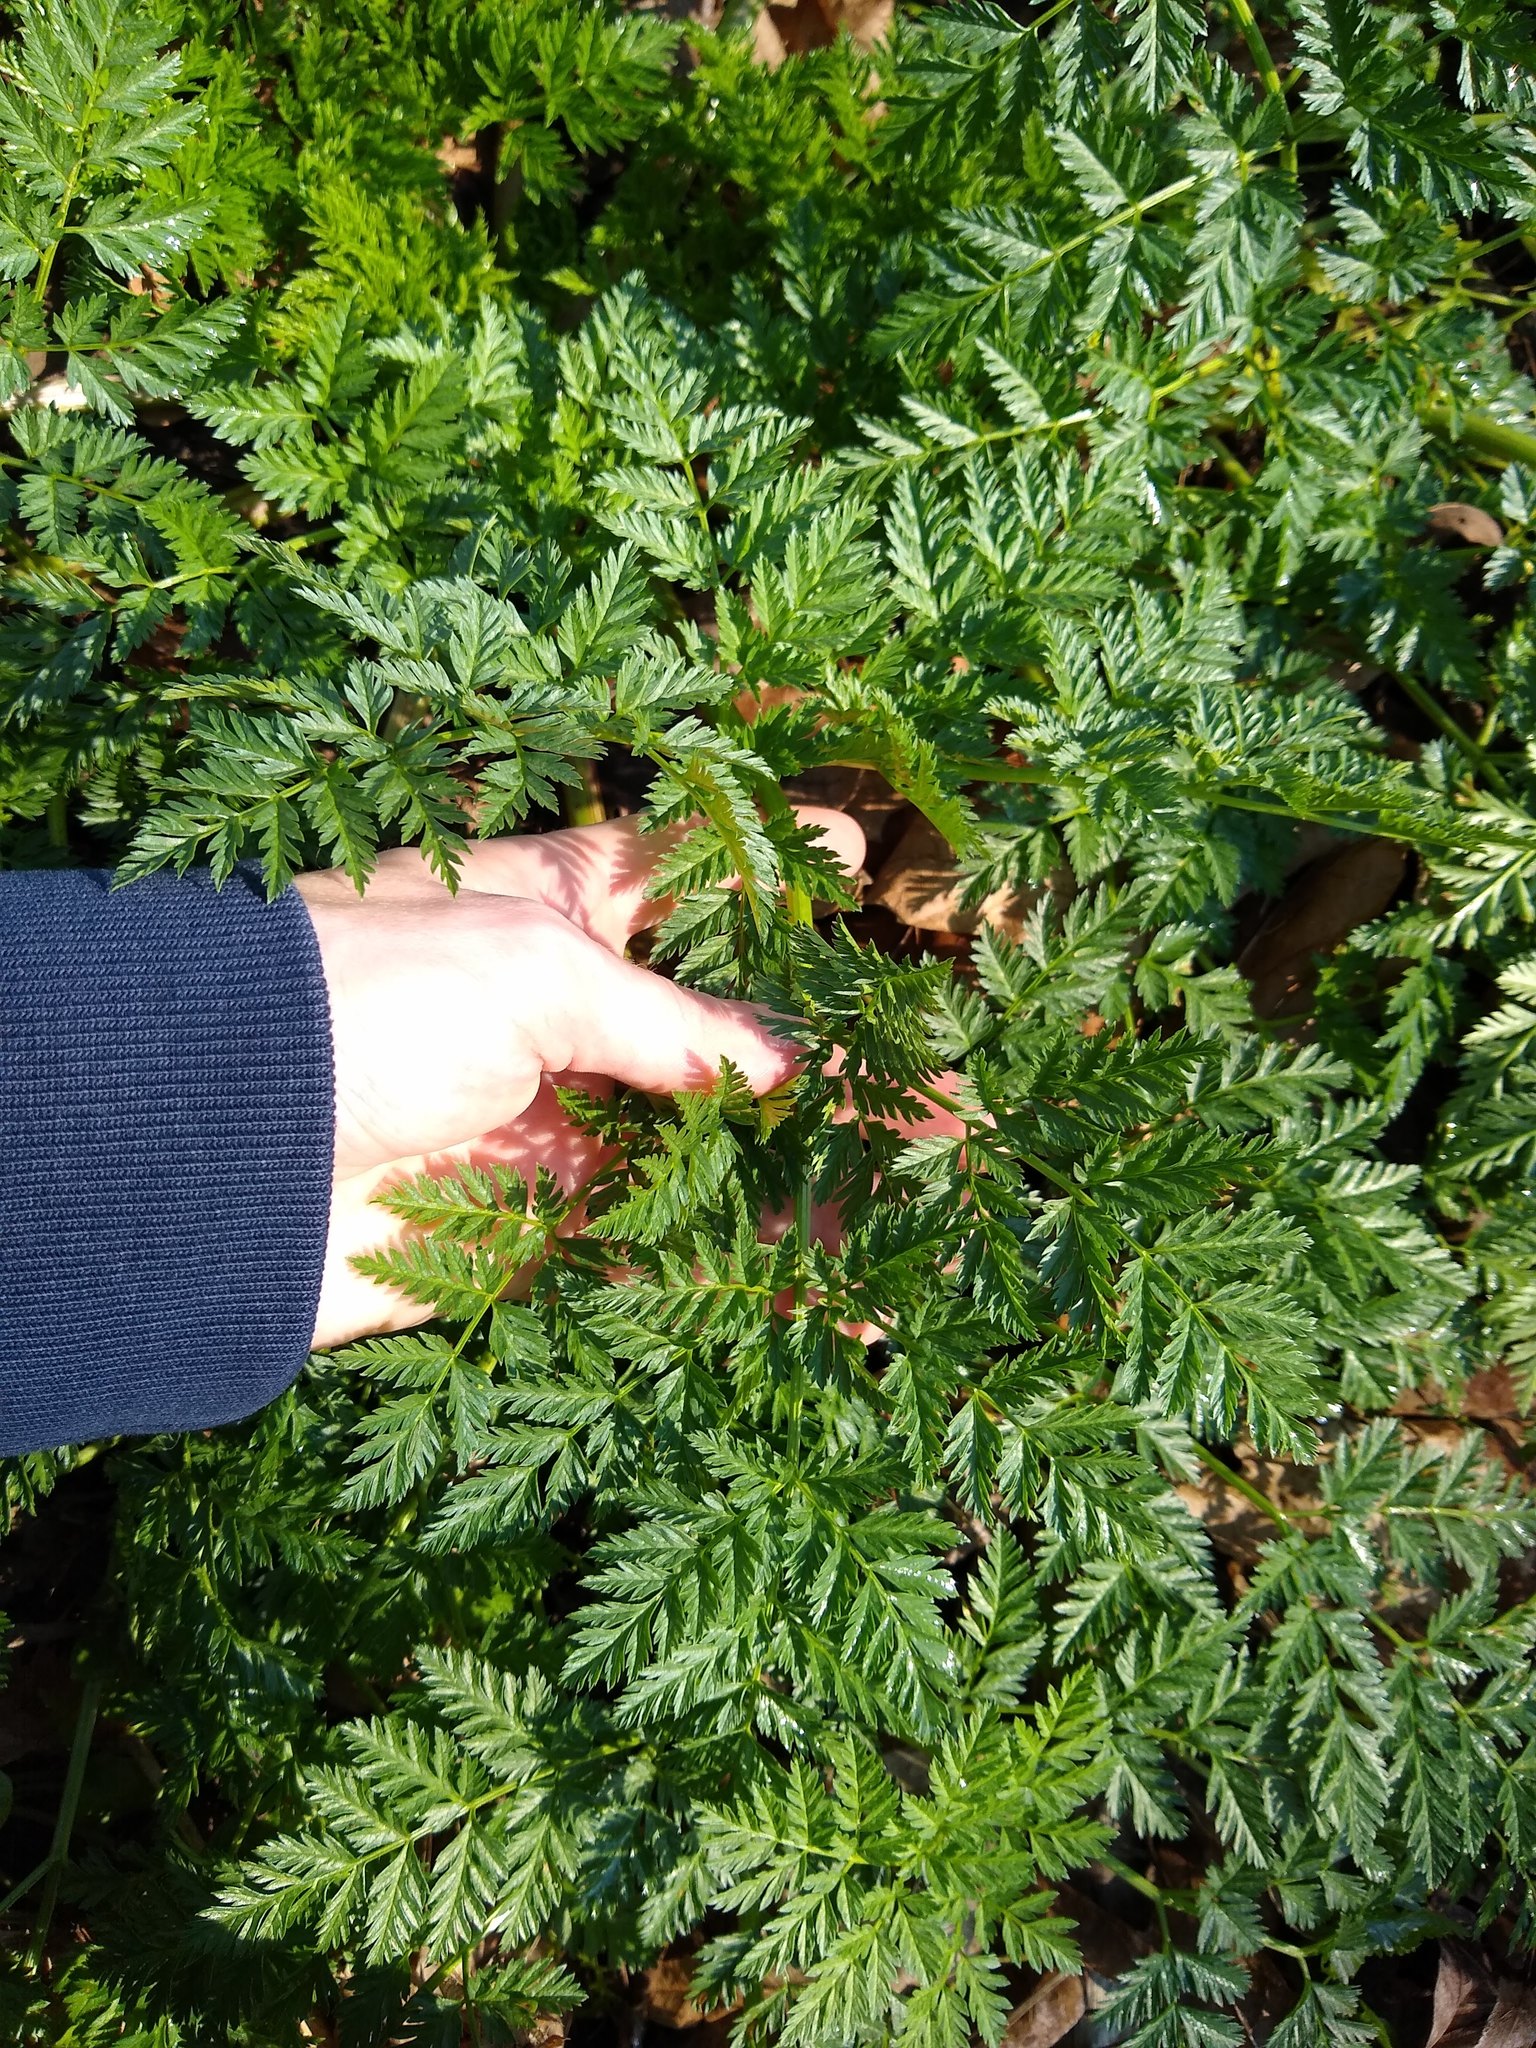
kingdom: Plantae
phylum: Tracheophyta
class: Magnoliopsida
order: Apiales
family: Apiaceae
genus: Conium
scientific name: Conium maculatum
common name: Hemlock
